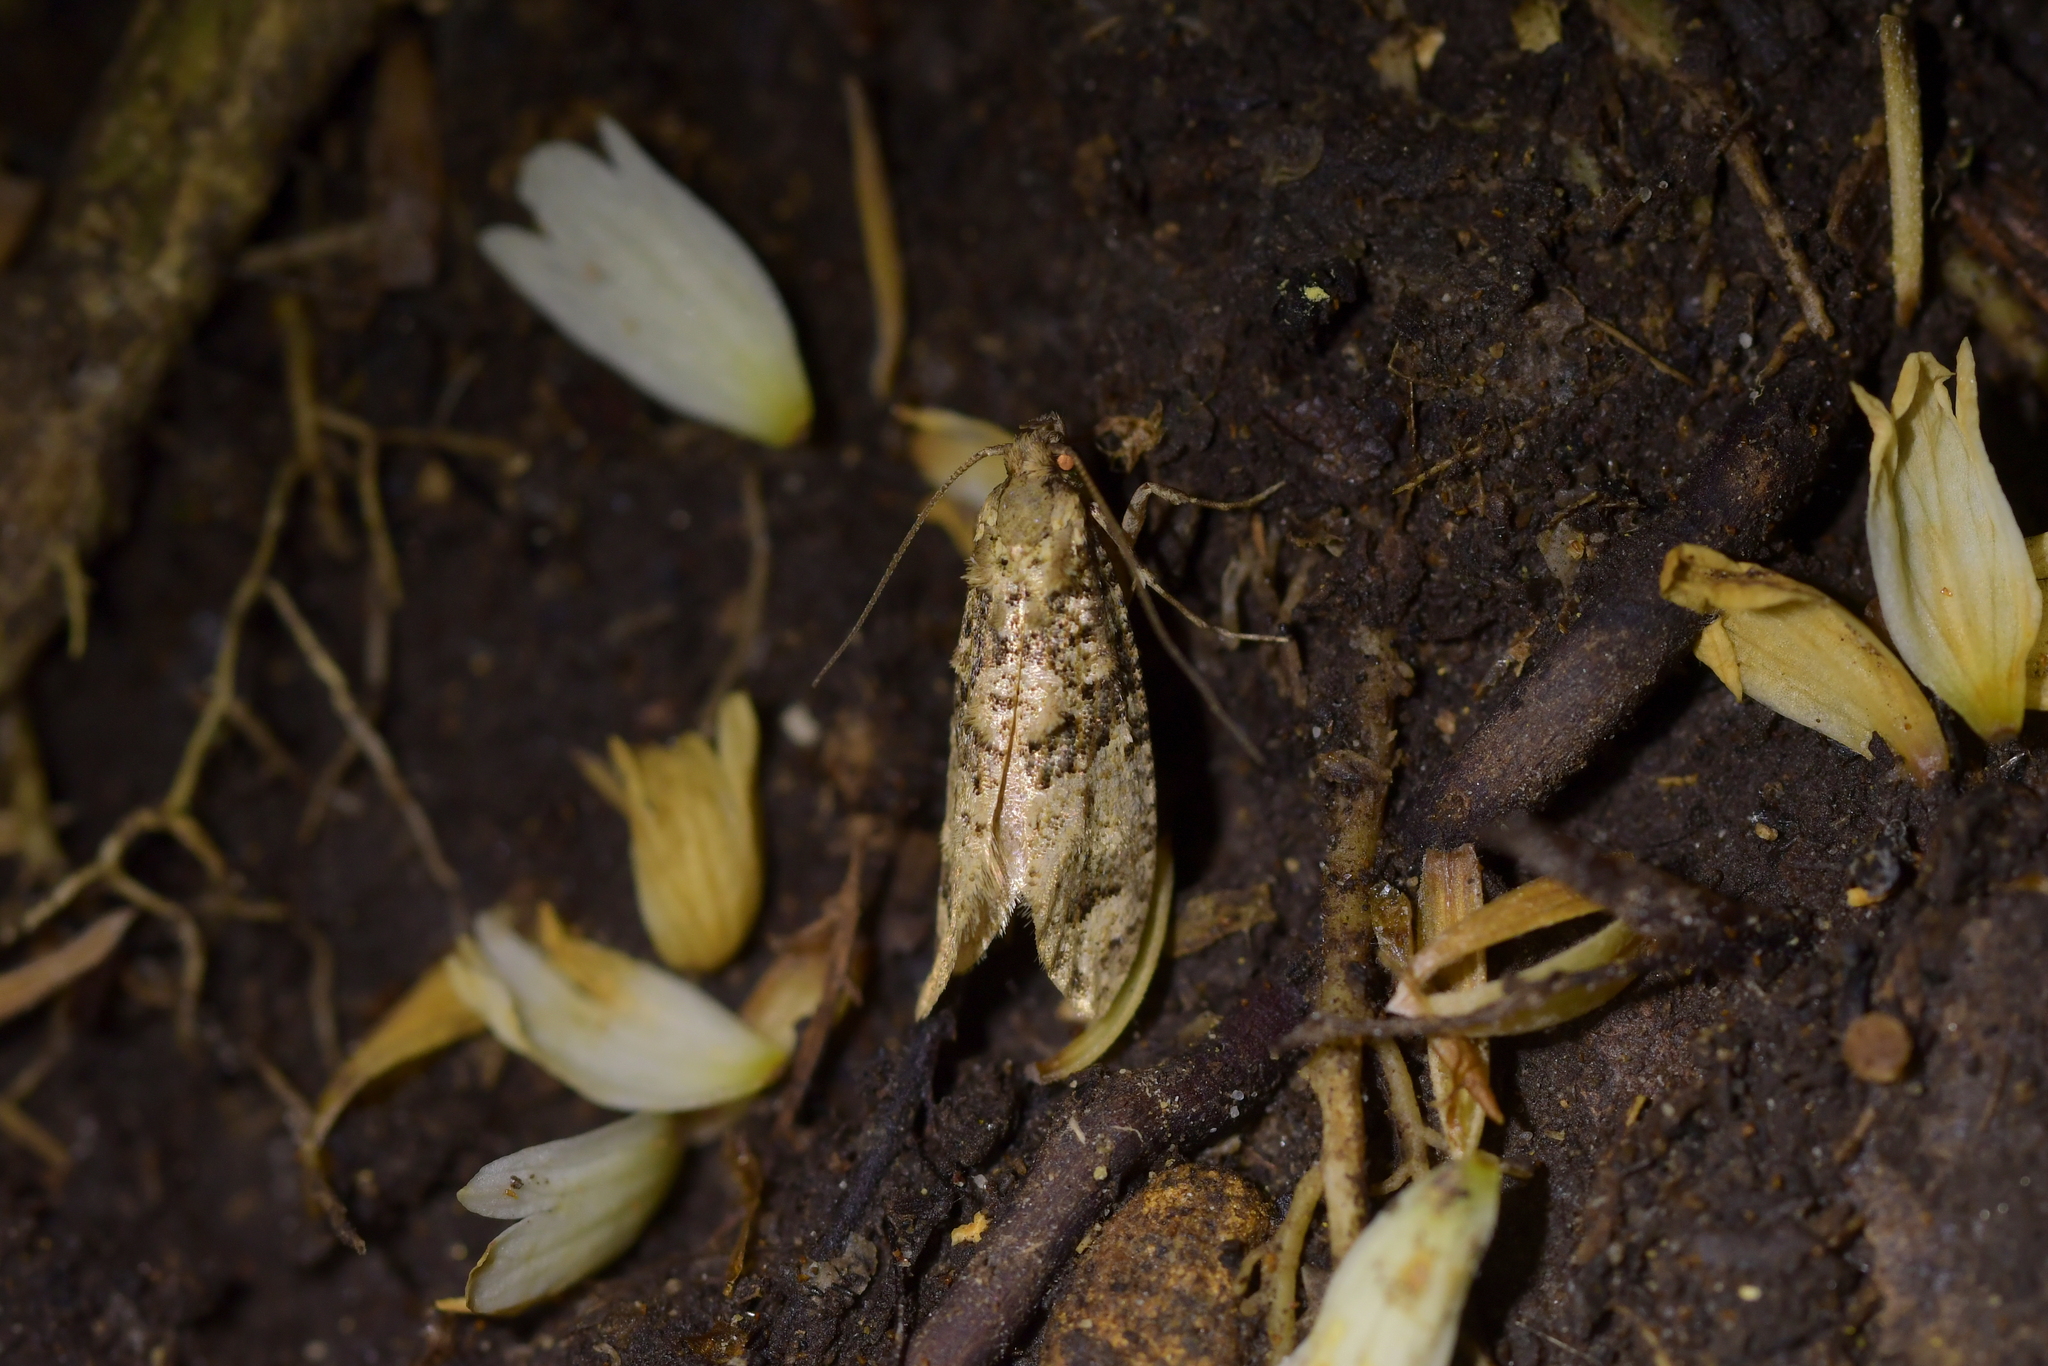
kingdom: Animalia
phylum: Arthropoda
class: Insecta
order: Lepidoptera
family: Tineidae
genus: Lysiphragma
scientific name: Lysiphragma epixyla
